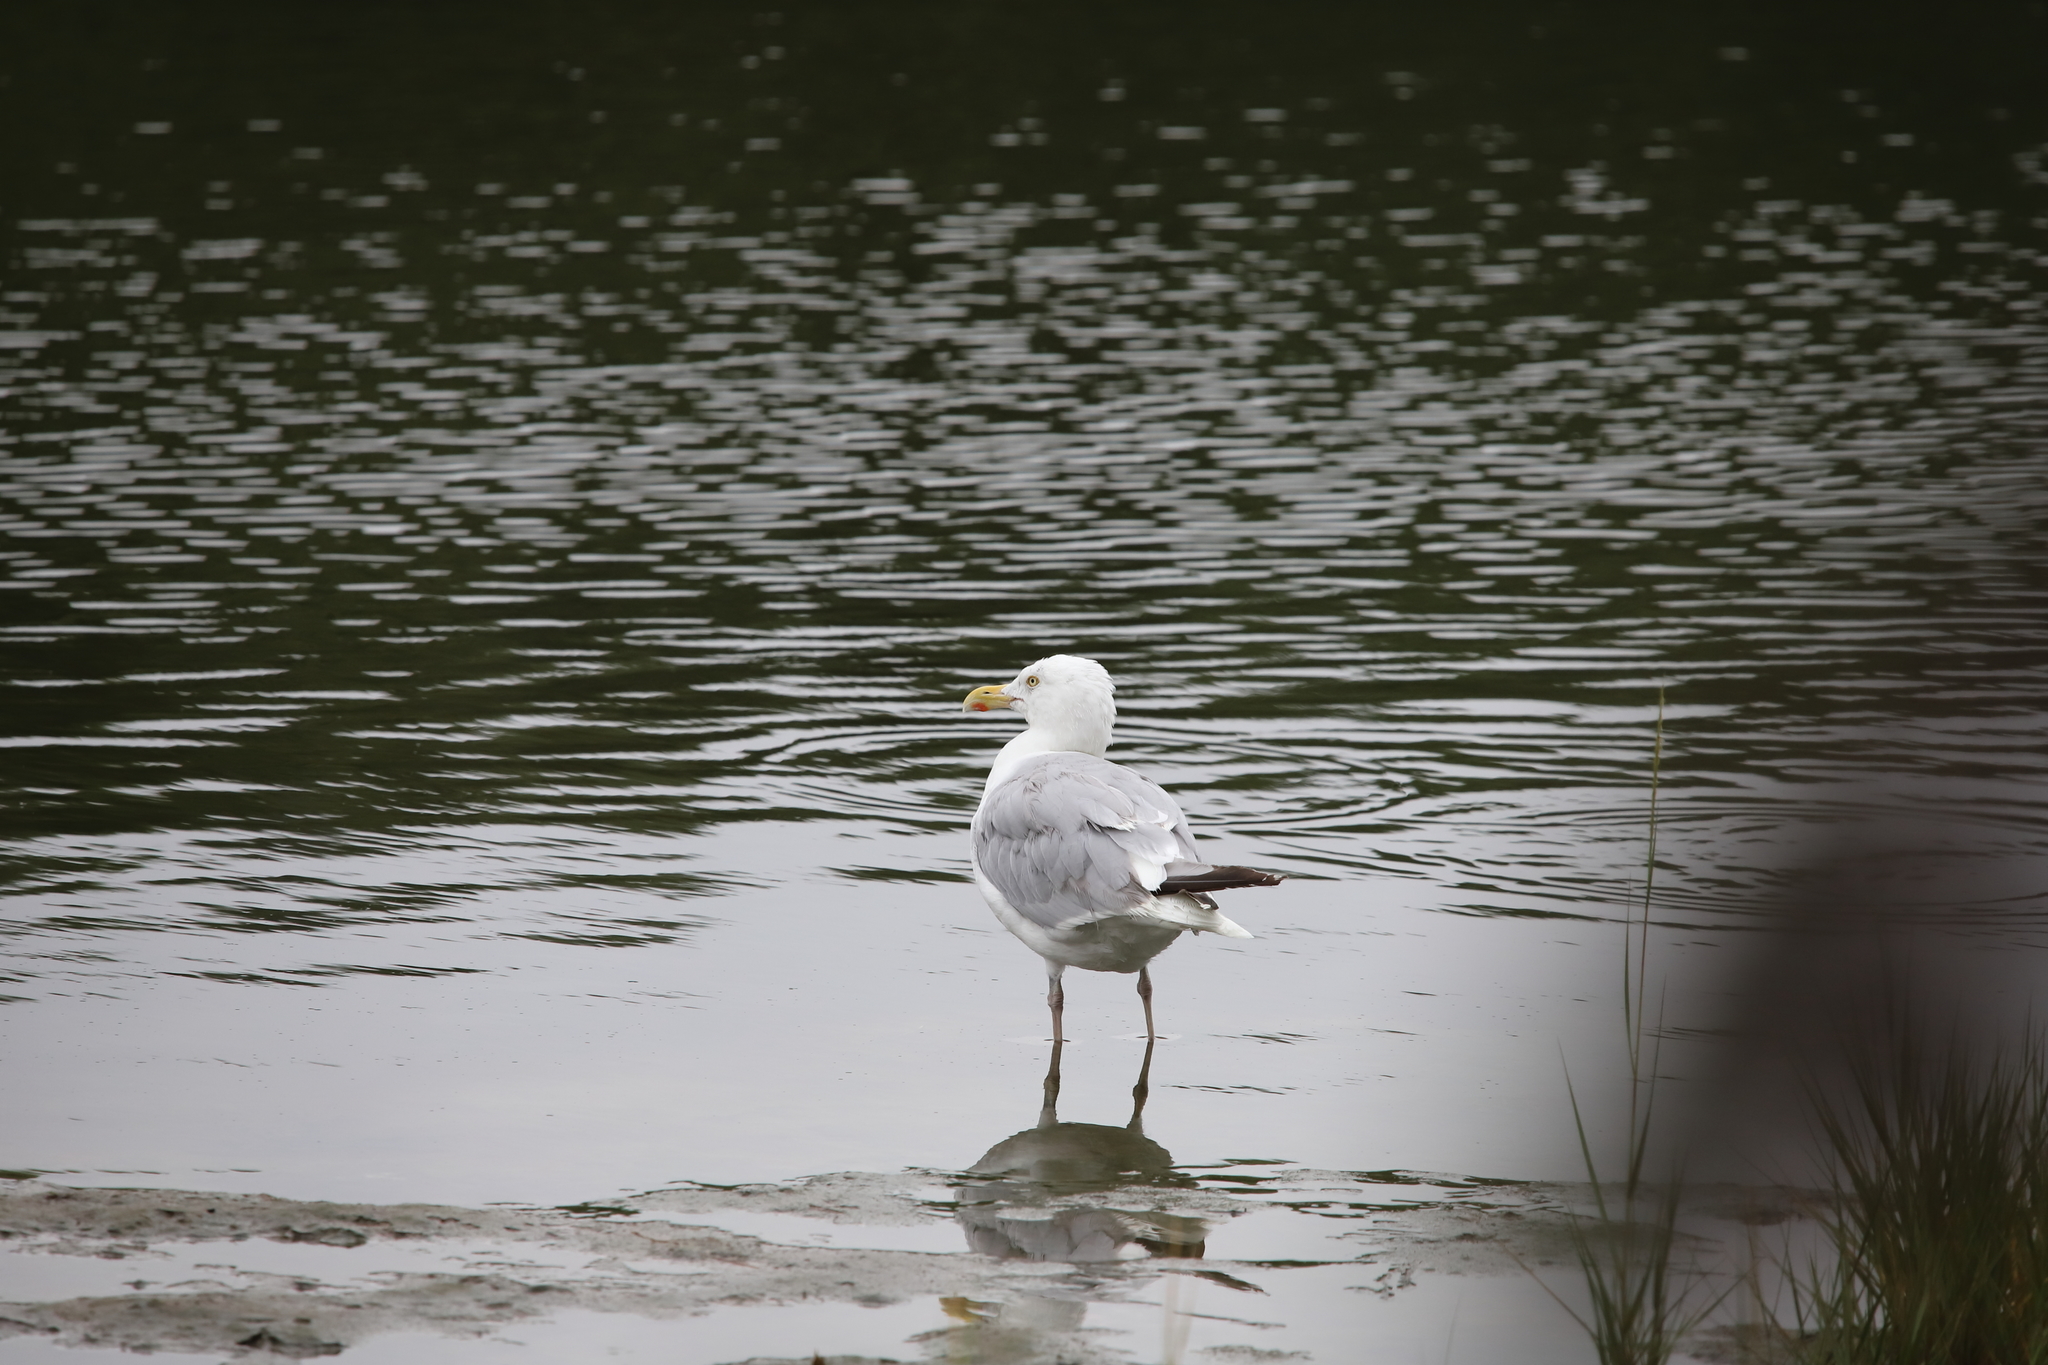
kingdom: Animalia
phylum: Chordata
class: Aves
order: Charadriiformes
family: Laridae
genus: Larus
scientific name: Larus argentatus
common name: Herring gull
